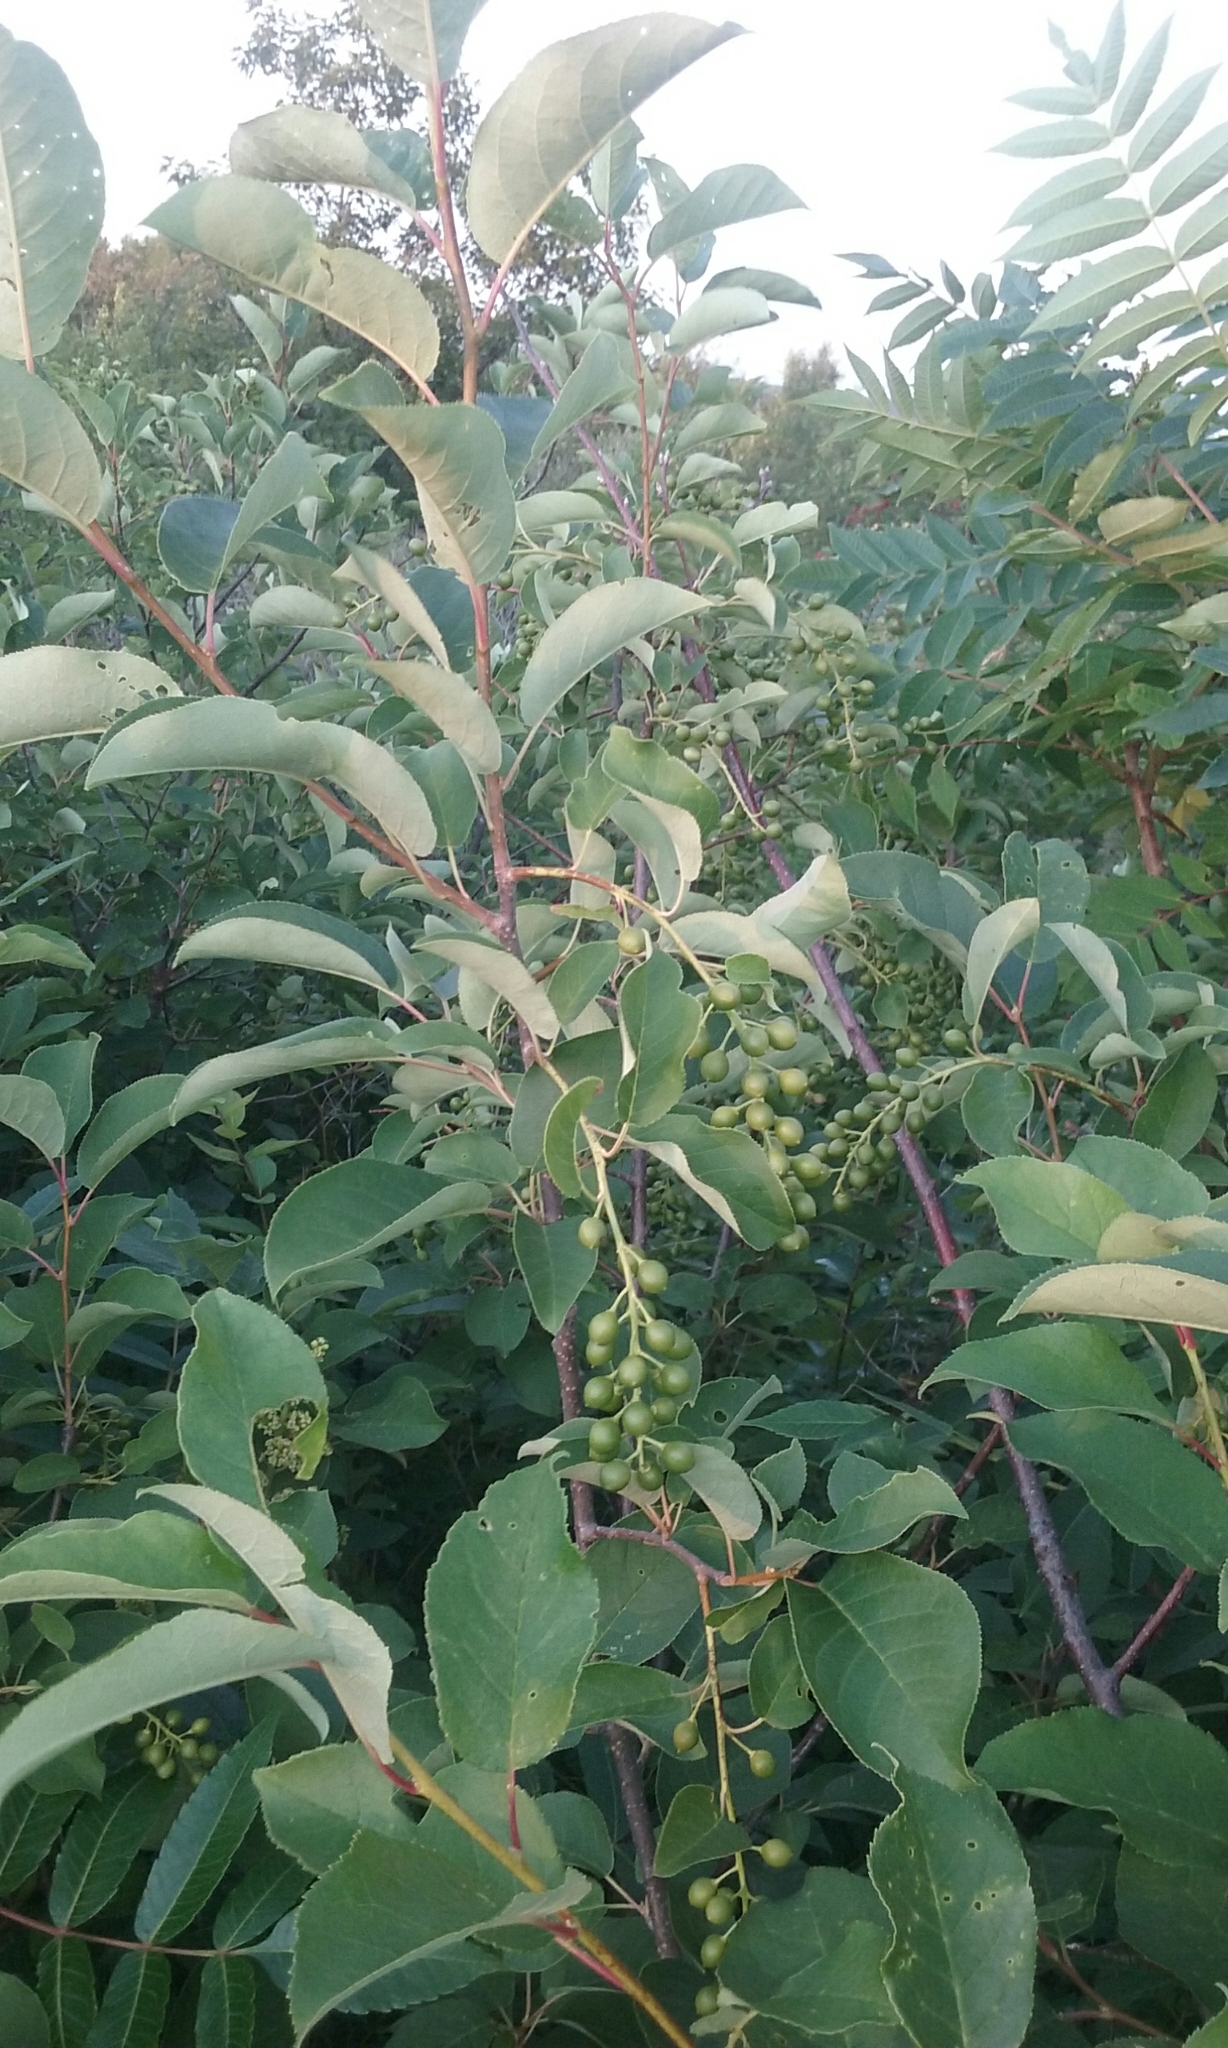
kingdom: Plantae
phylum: Tracheophyta
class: Magnoliopsida
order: Rosales
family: Rosaceae
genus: Prunus
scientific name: Prunus virginiana
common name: Chokecherry
